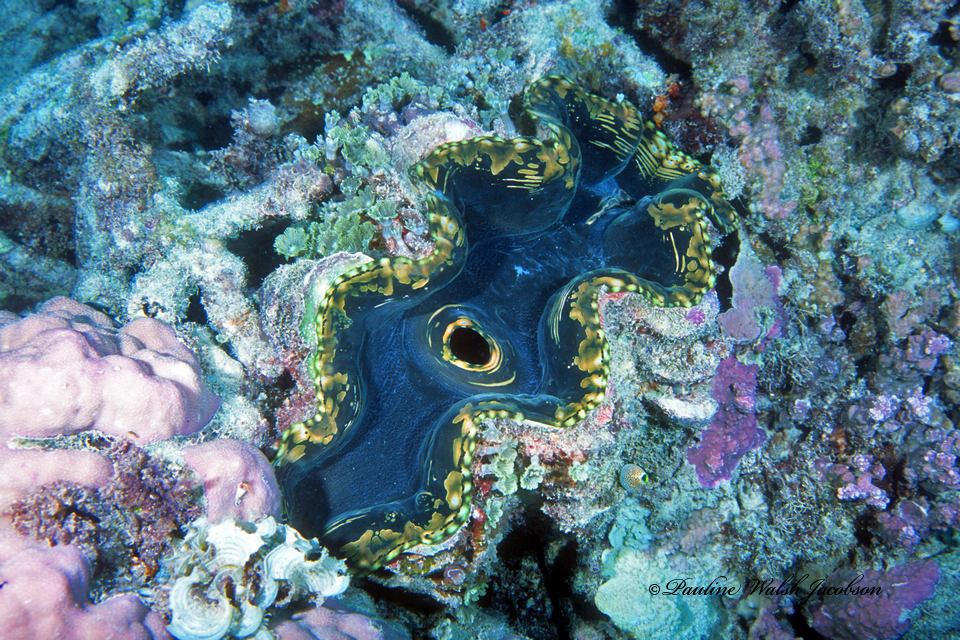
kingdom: Animalia
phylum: Mollusca
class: Bivalvia
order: Cardiida
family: Cardiidae
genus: Tridacna
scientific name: Tridacna squamosa
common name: Fluted clam
